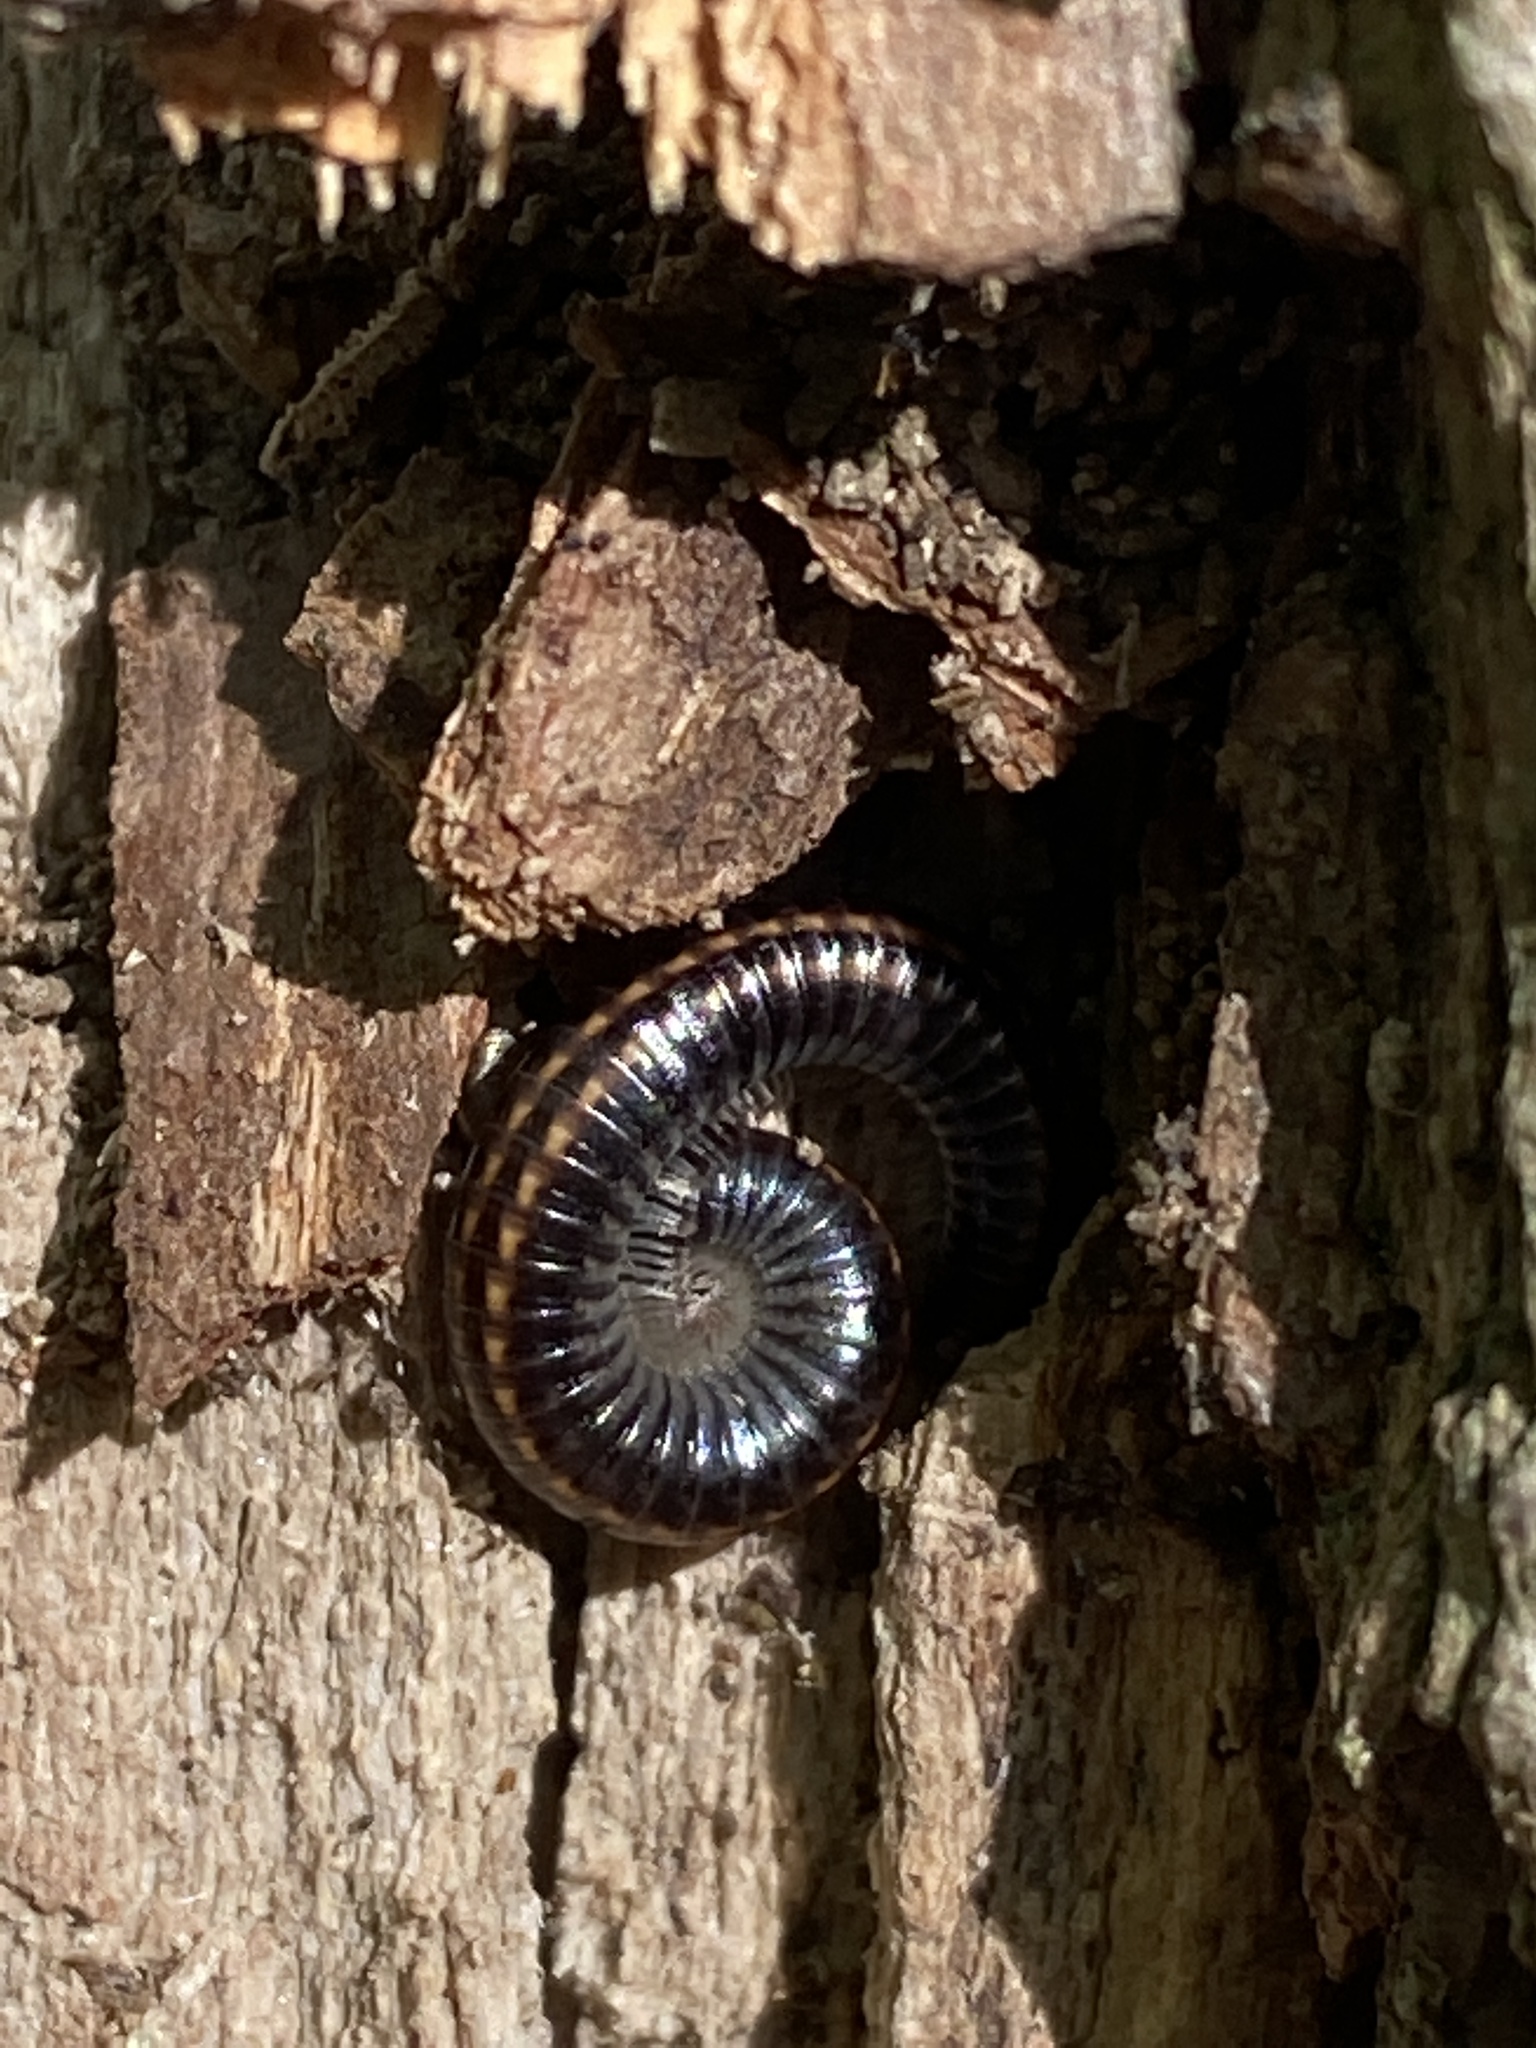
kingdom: Animalia
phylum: Arthropoda
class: Diplopoda
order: Julida
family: Julidae
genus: Ommatoiulus
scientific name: Ommatoiulus sabulosus
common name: Striped millipede
